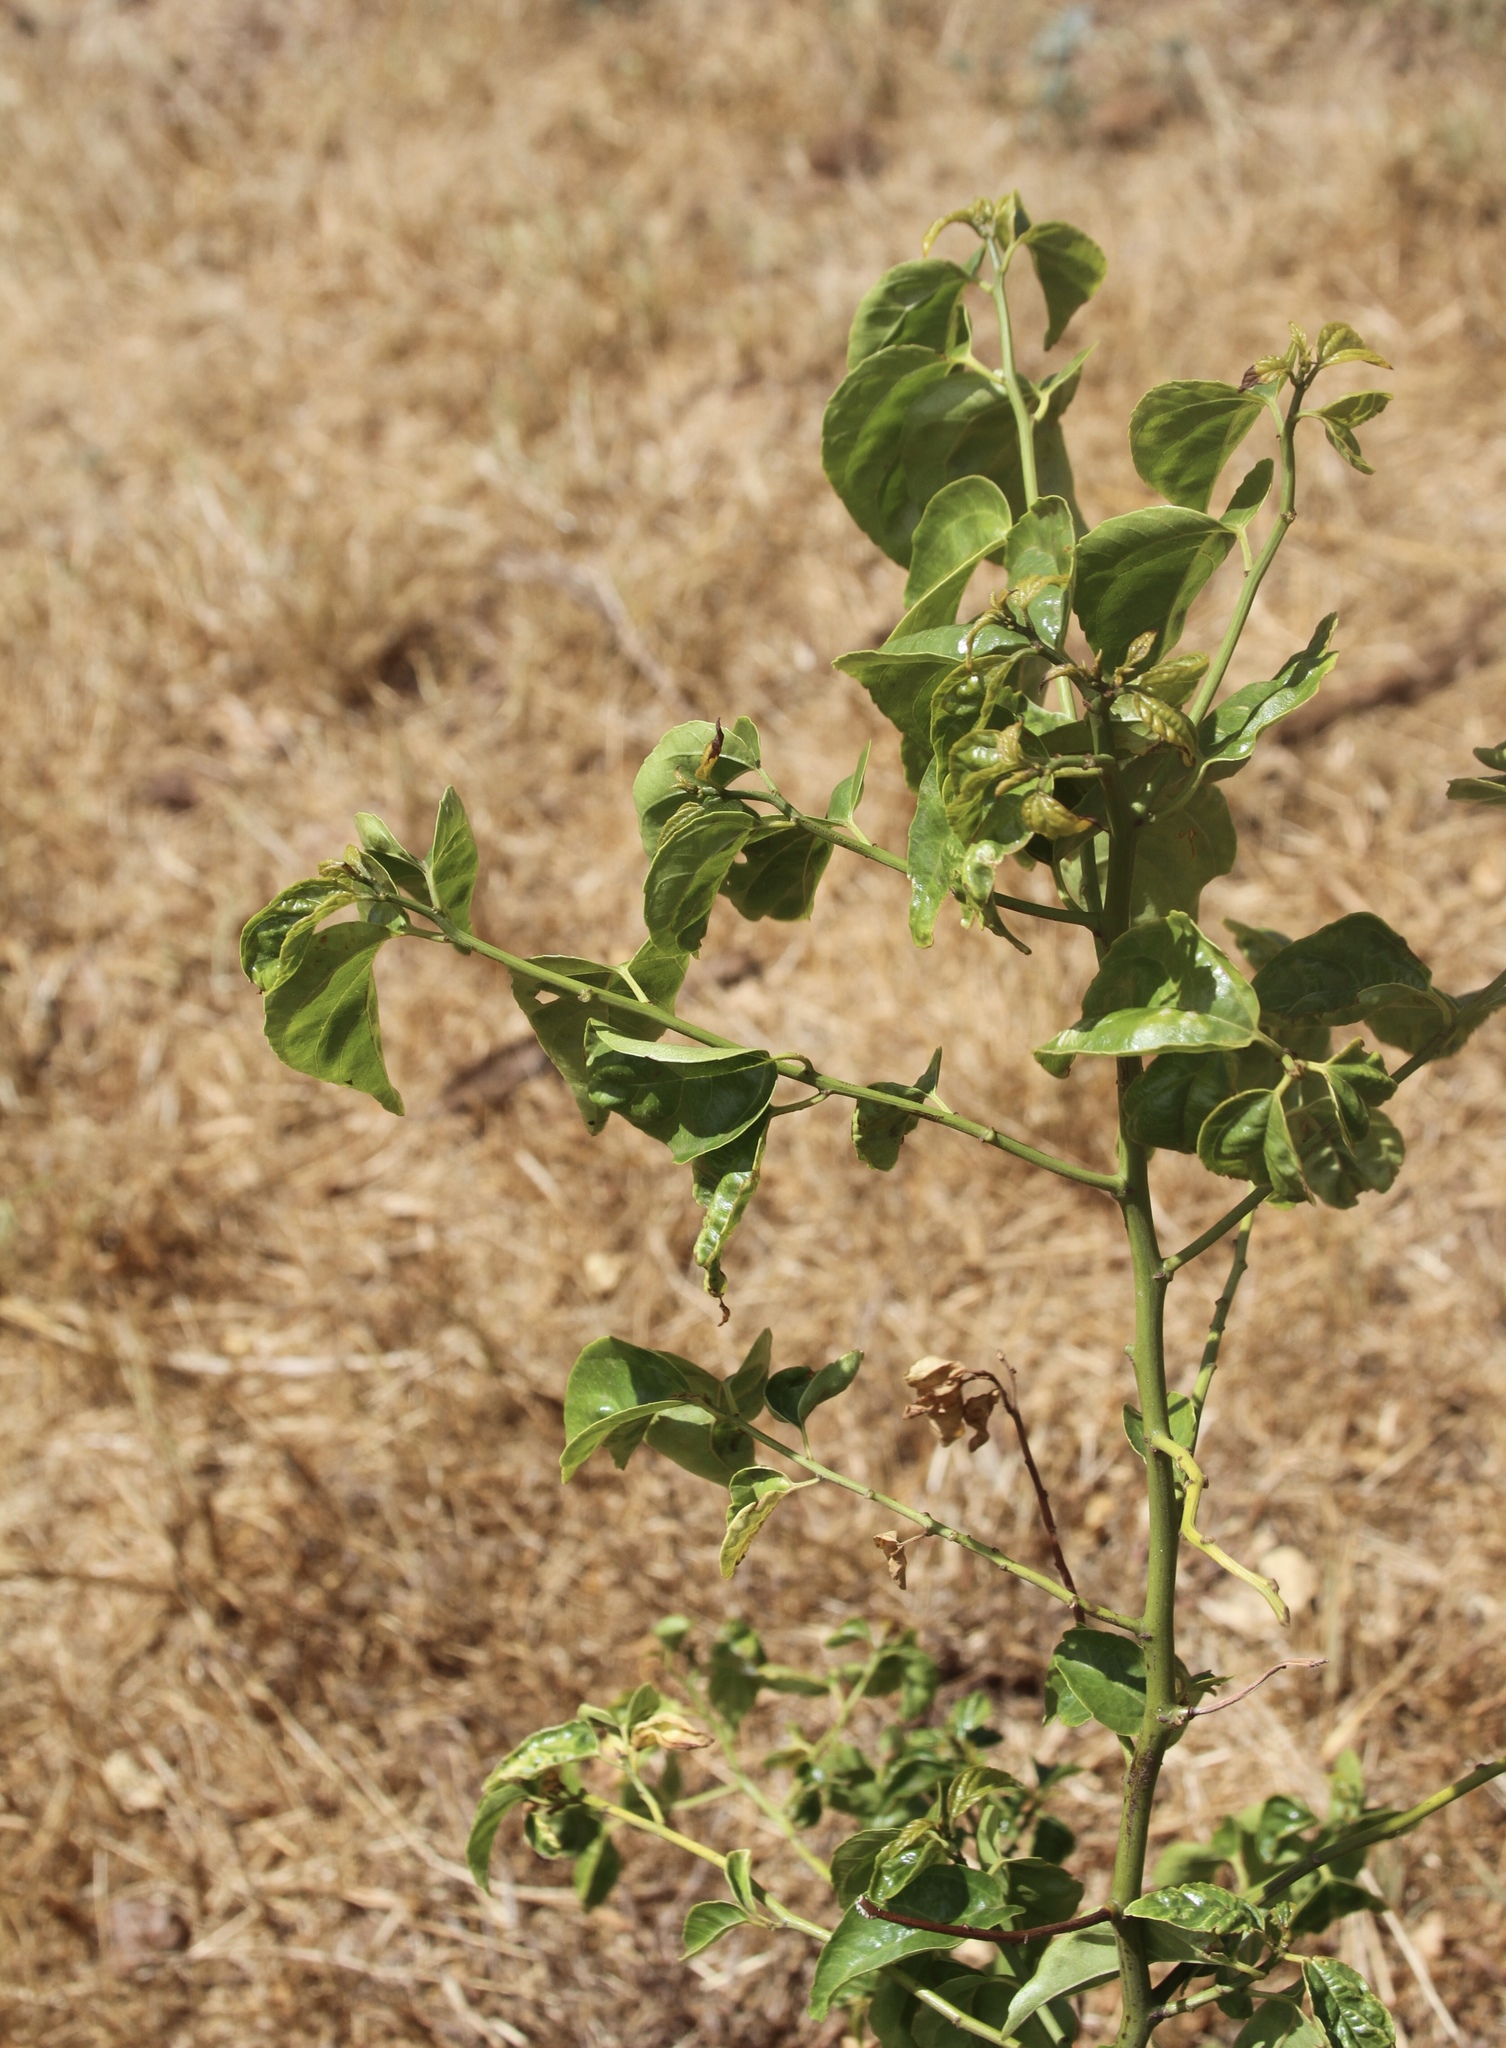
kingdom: Plantae
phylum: Tracheophyta
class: Magnoliopsida
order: Rosales
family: Rhamnaceae
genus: Colubrina
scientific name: Colubrina asiatica
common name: Asian nakedwood
